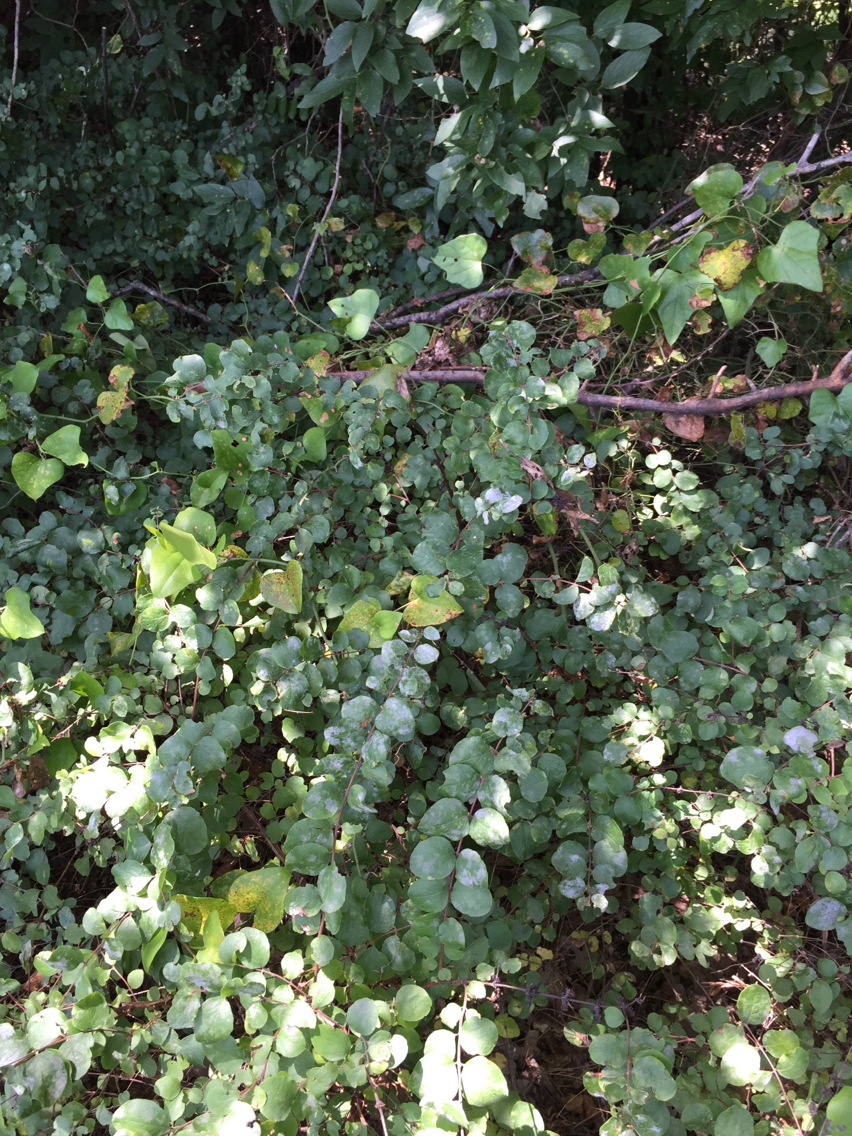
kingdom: Plantae
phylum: Tracheophyta
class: Magnoliopsida
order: Dipsacales
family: Caprifoliaceae
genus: Symphoricarpos
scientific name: Symphoricarpos orbiculatus
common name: Coralberry
